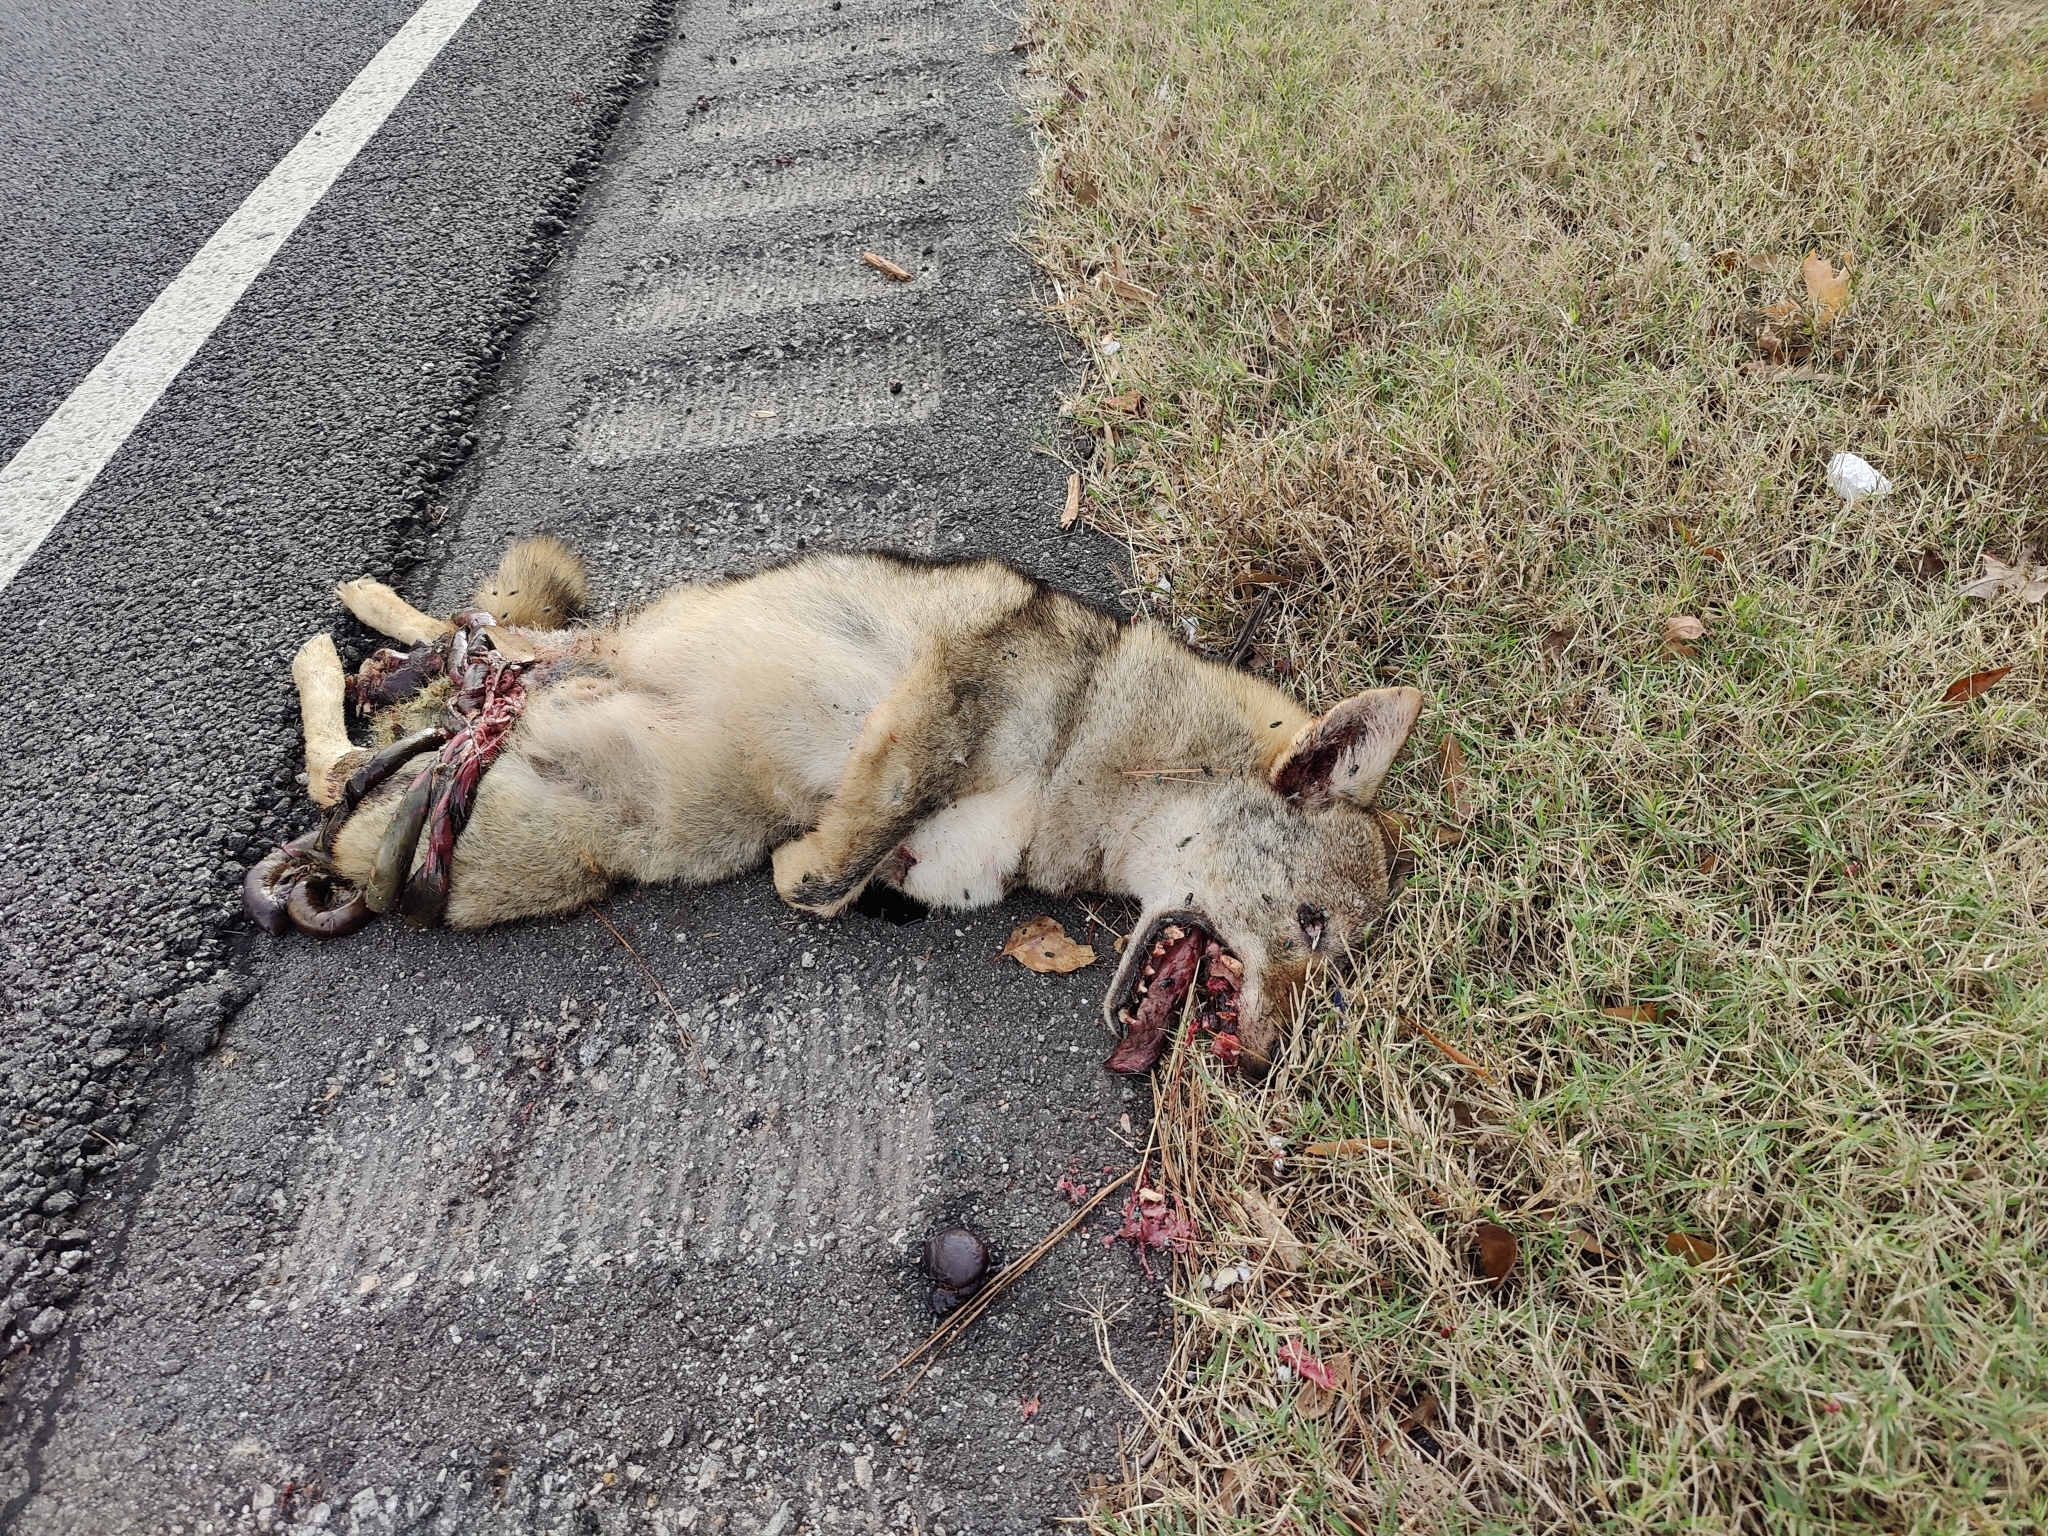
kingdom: Animalia
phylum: Chordata
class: Mammalia
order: Carnivora
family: Canidae
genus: Canis
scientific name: Canis latrans
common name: Coyote
